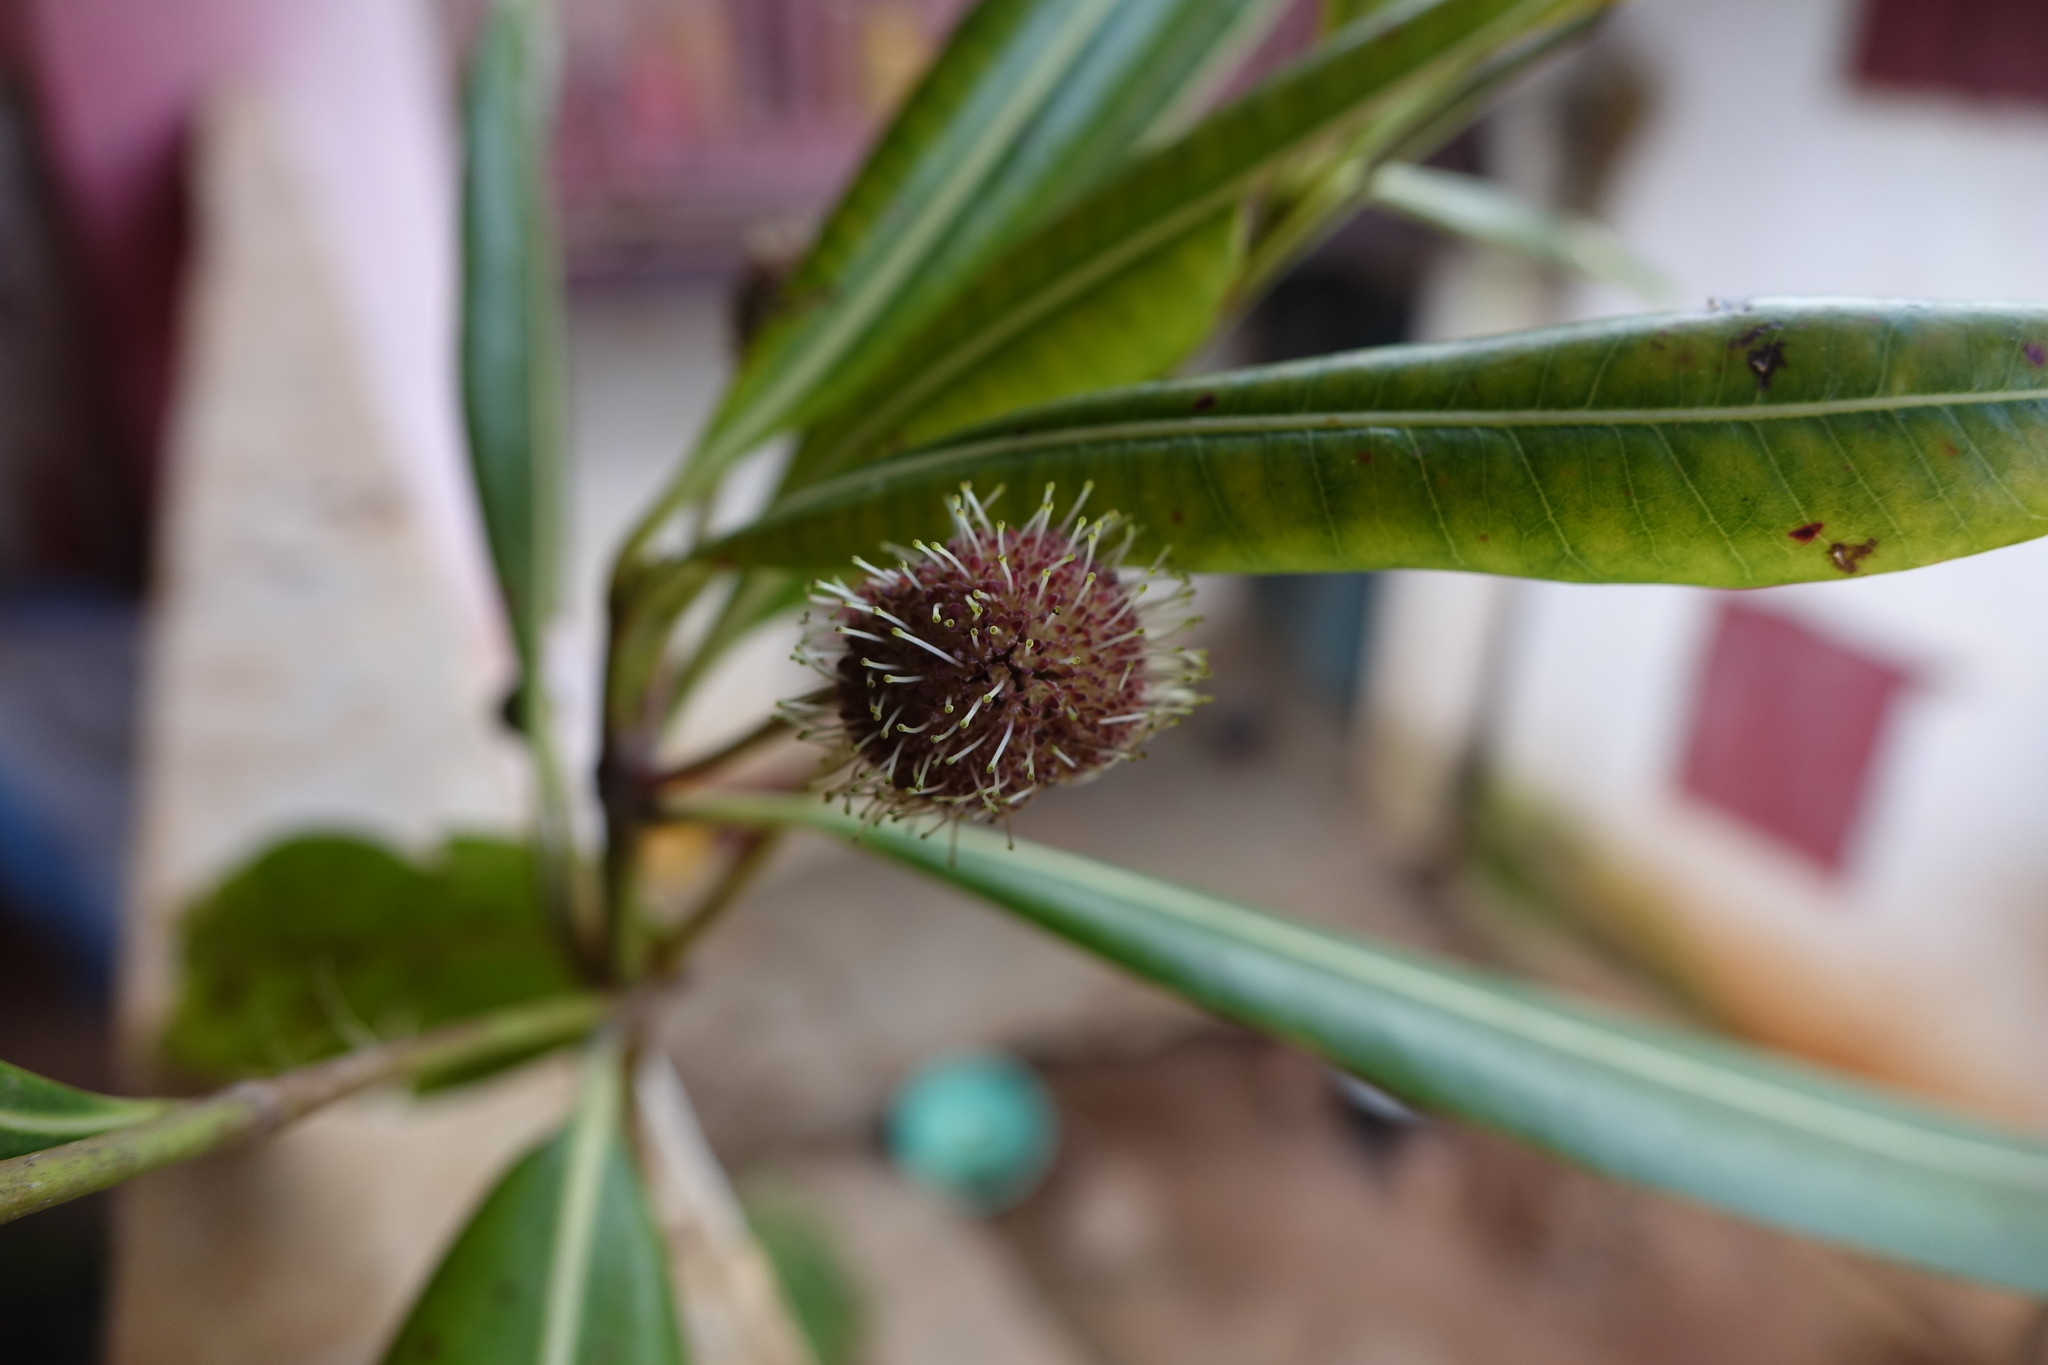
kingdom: Plantae
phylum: Tracheophyta
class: Magnoliopsida
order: Gentianales
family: Rubiaceae
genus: Breonadia
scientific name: Breonadia salicina
